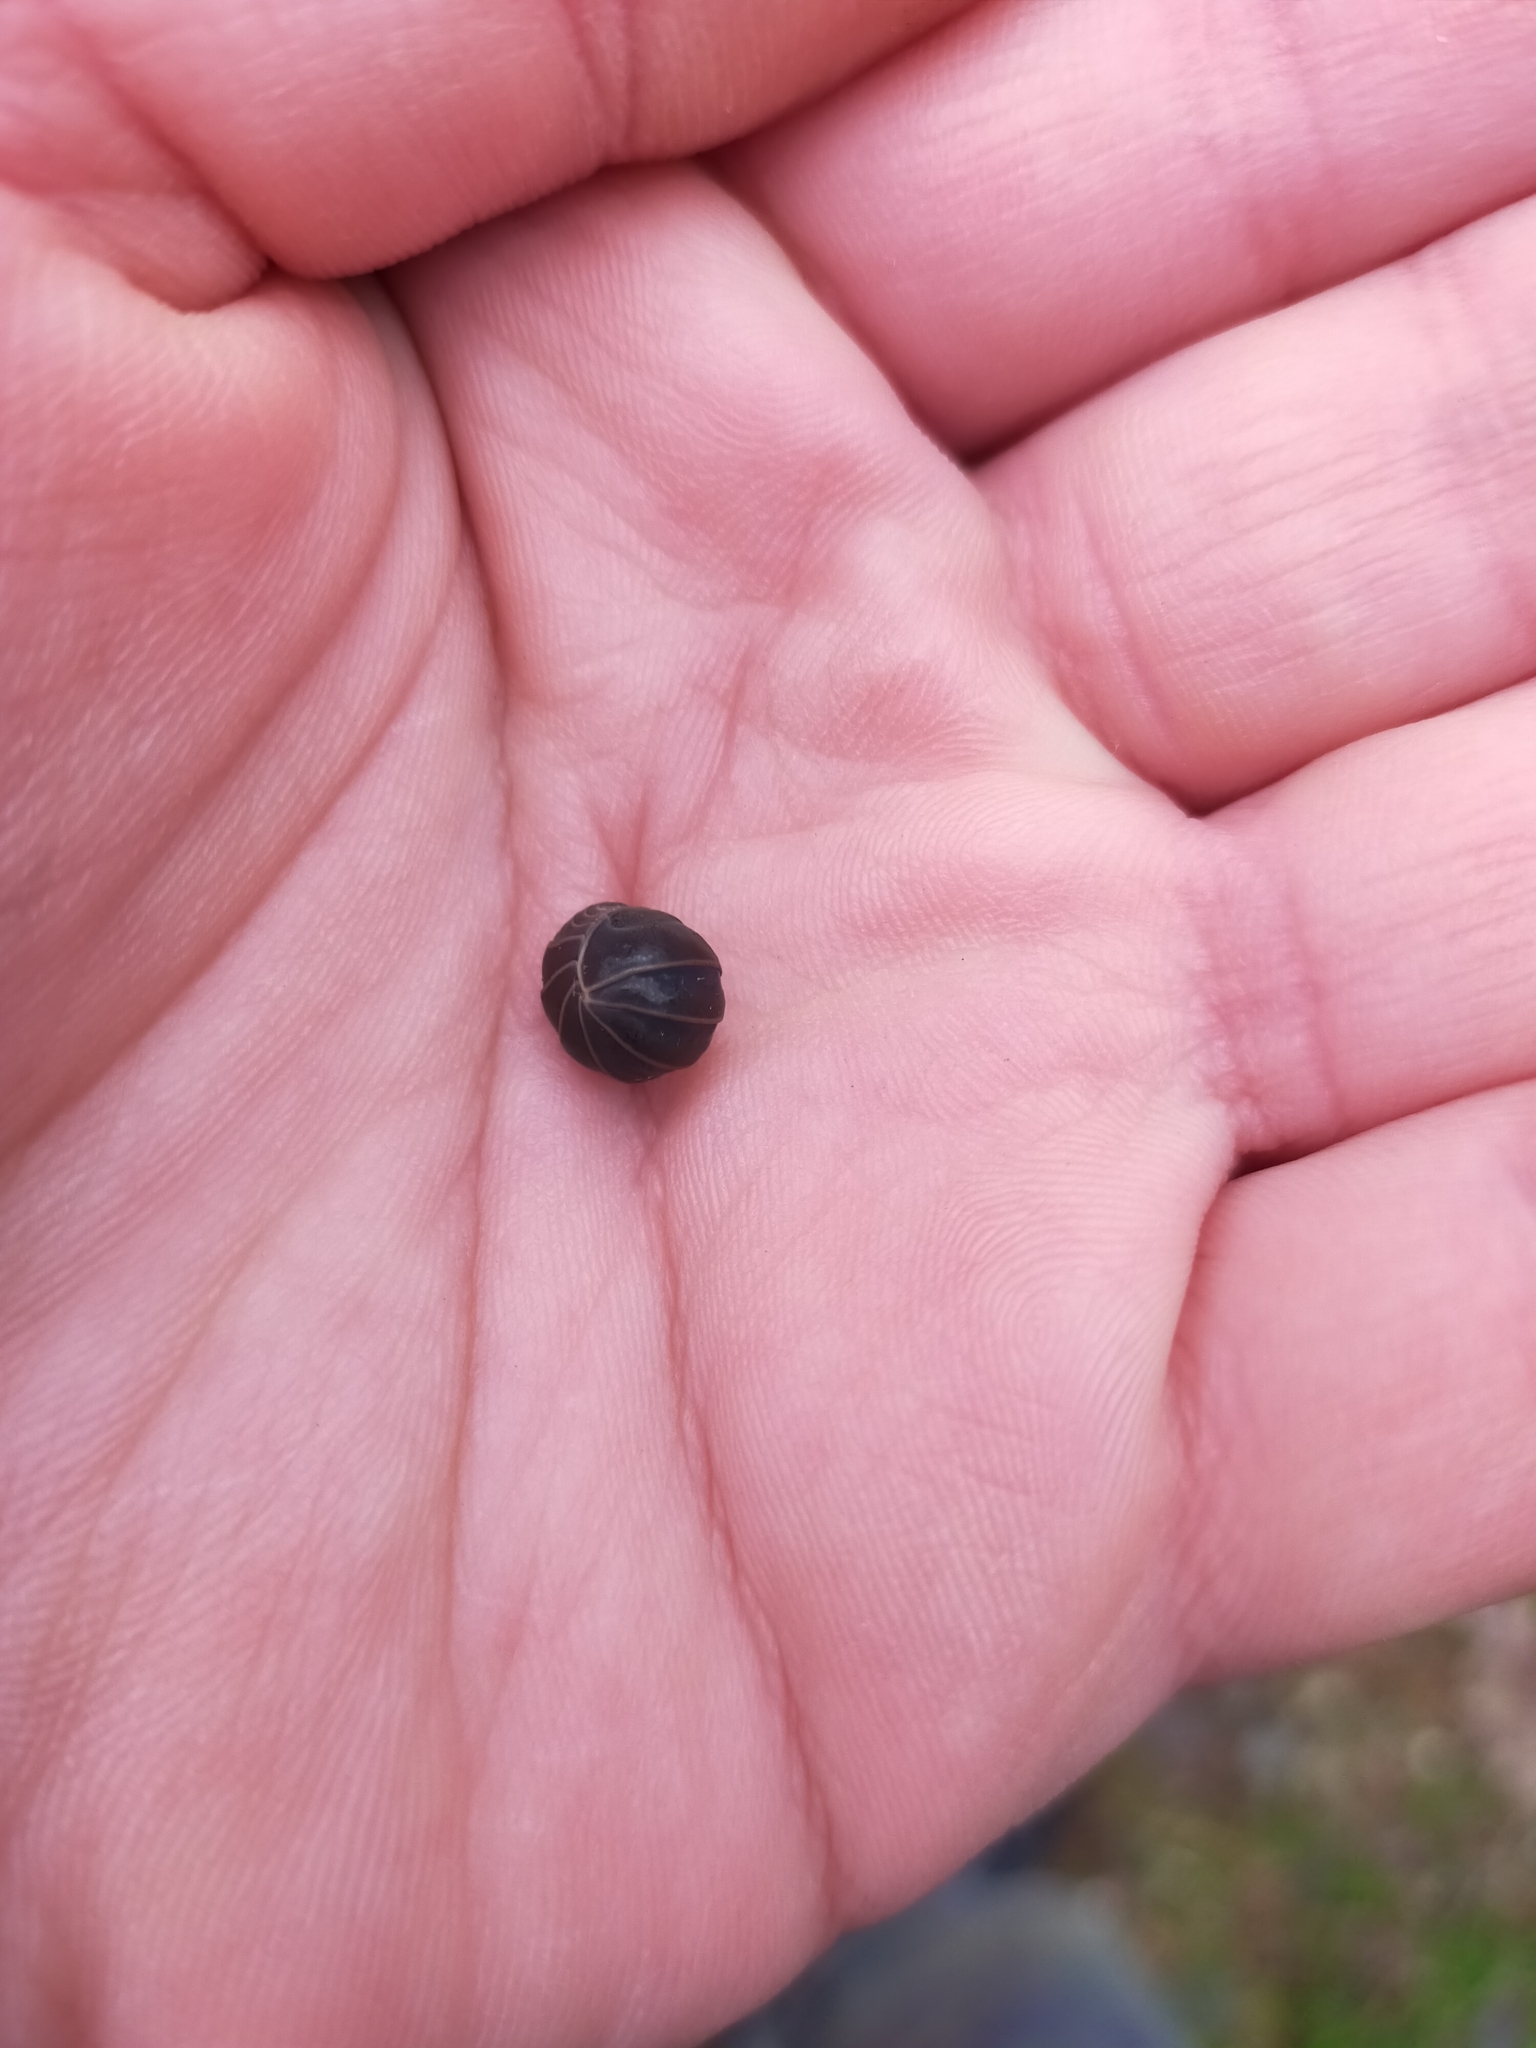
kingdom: Animalia
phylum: Arthropoda
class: Malacostraca
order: Isopoda
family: Armadillidae
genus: Armadillo
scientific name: Armadillo officinalis
